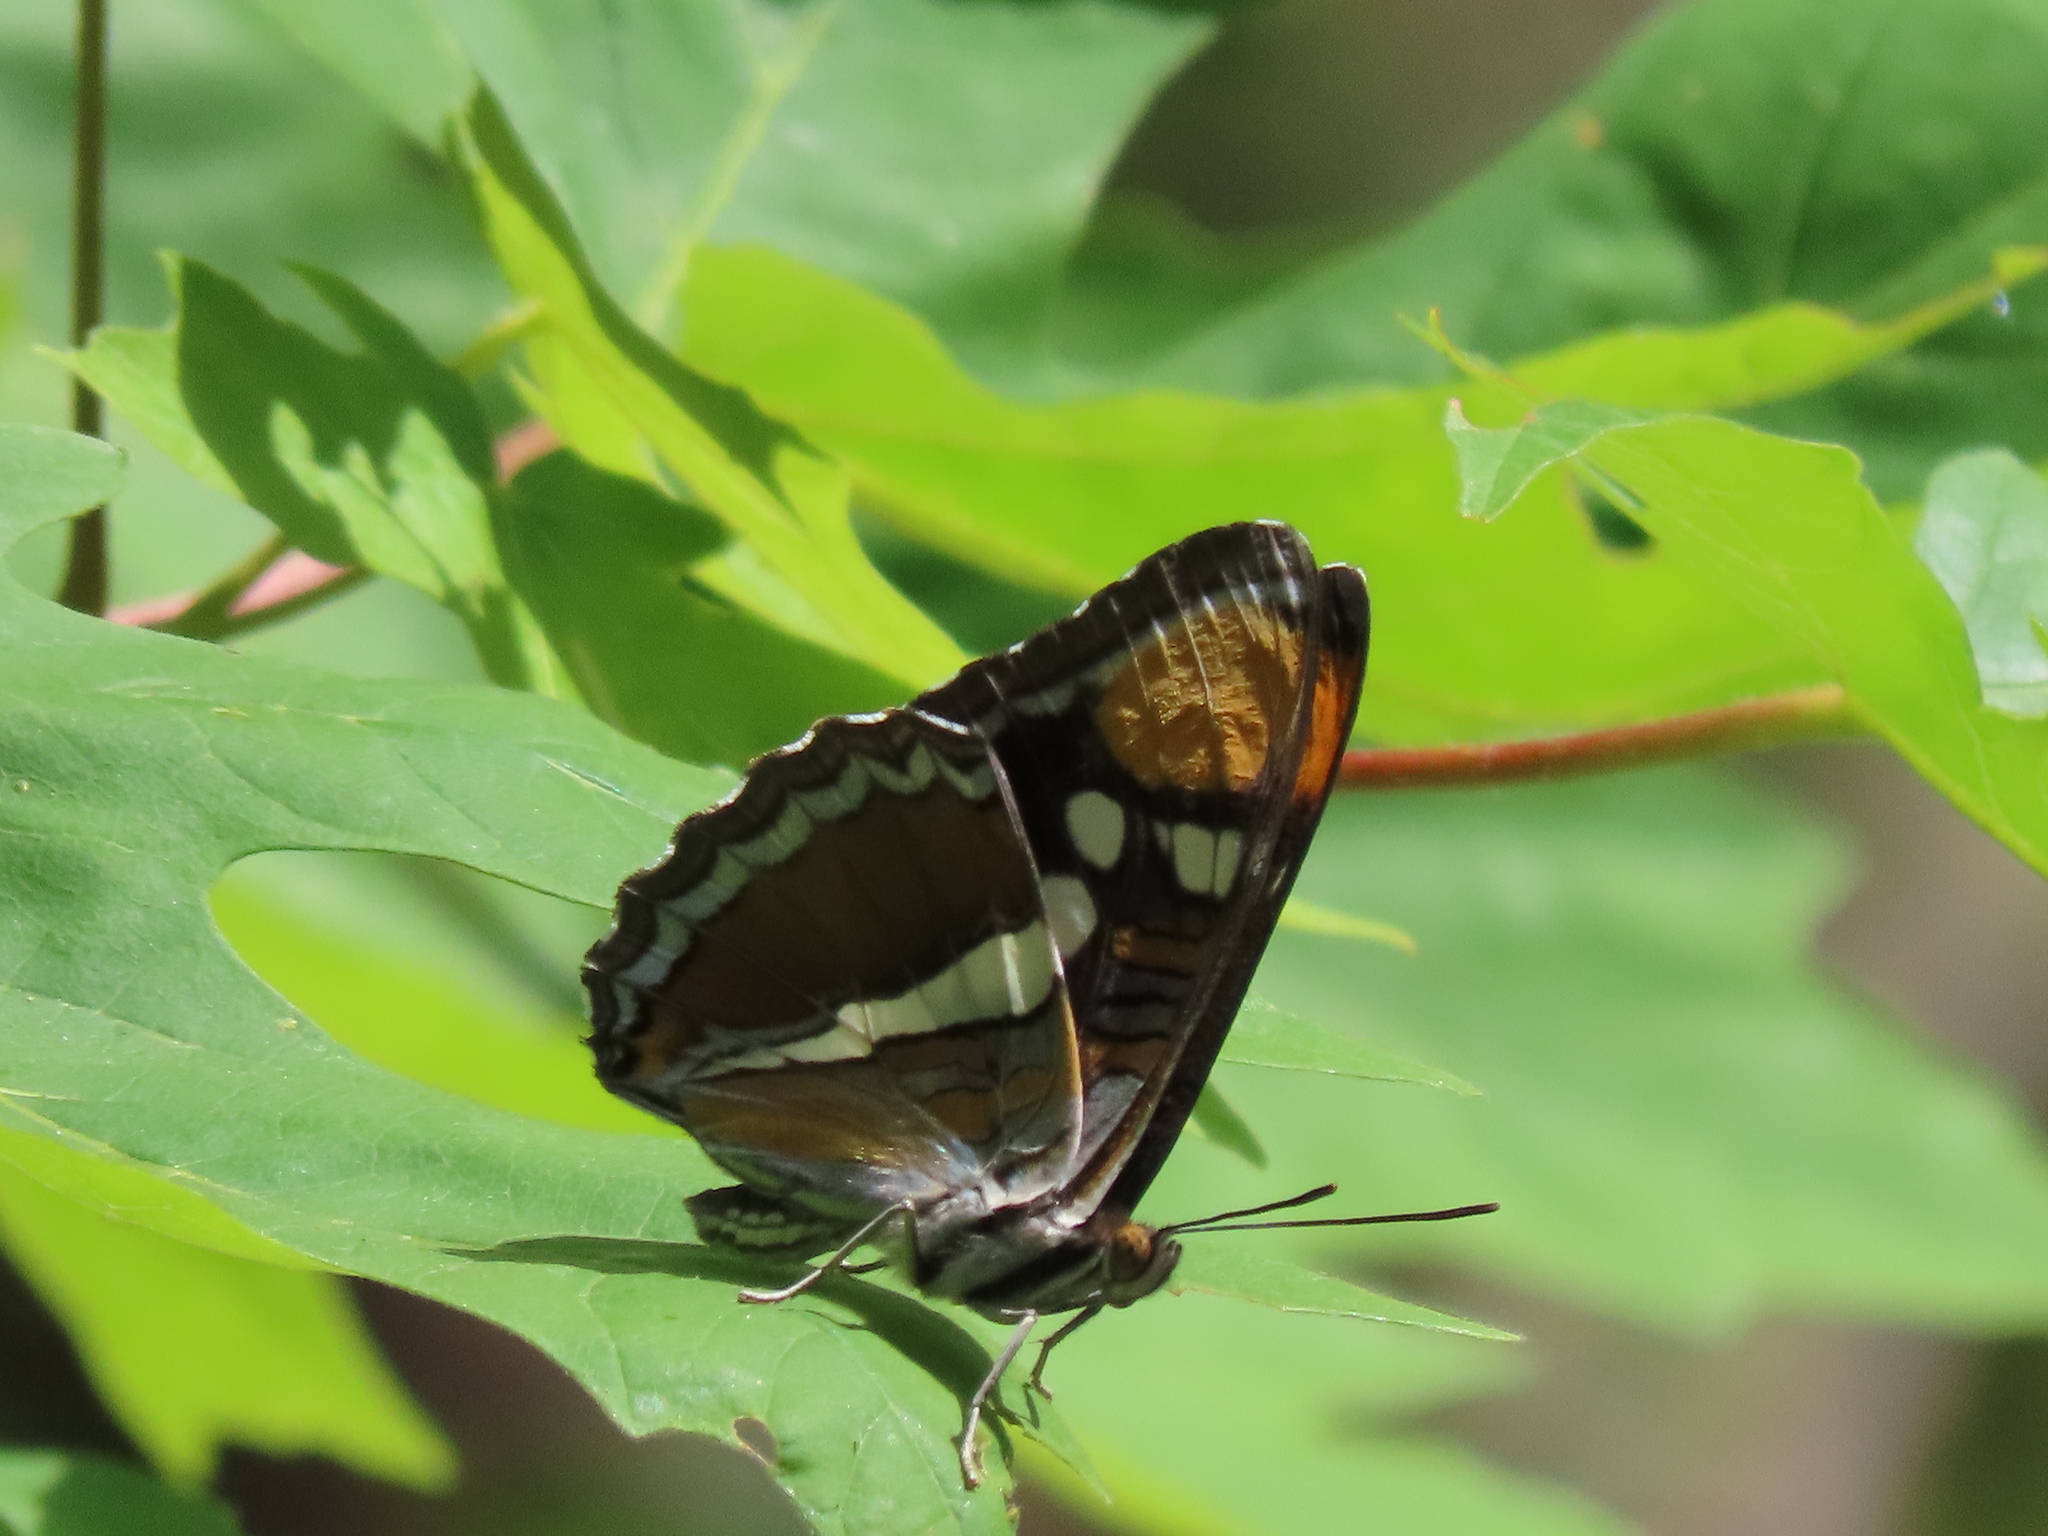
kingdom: Animalia
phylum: Arthropoda
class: Insecta
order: Lepidoptera
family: Nymphalidae
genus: Limenitis
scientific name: Limenitis bredowii
